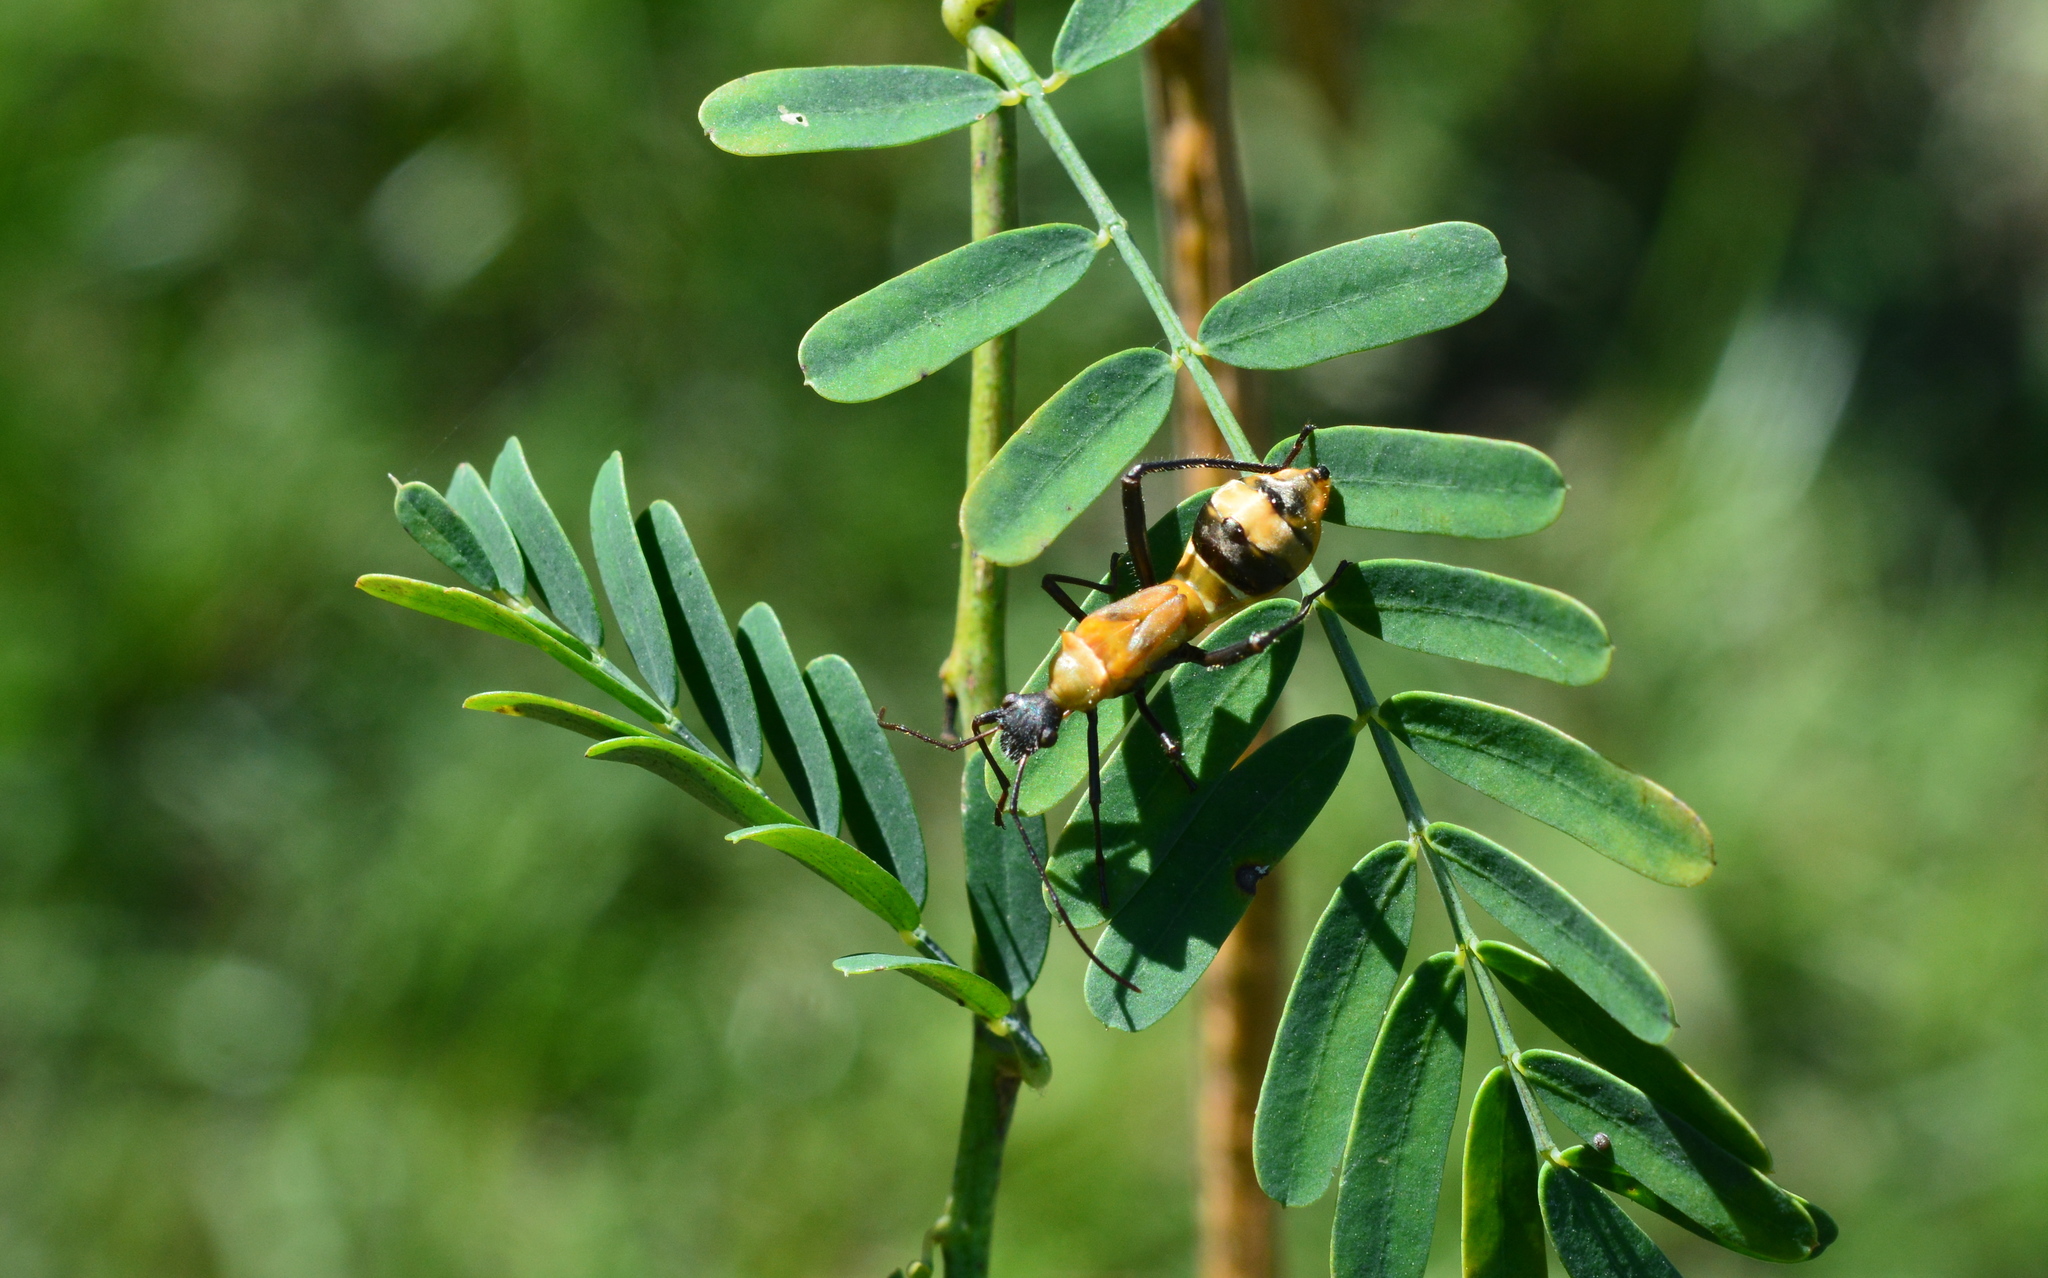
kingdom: Animalia
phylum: Arthropoda
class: Insecta
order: Hemiptera
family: Alydidae
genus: Hyalymenus
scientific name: Hyalymenus tarsatus
